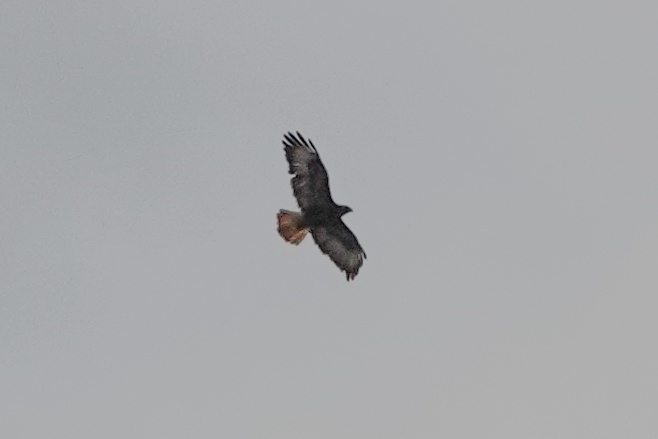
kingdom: Animalia
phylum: Chordata
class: Aves
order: Accipitriformes
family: Accipitridae
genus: Buteo
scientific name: Buteo buteo
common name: Common buzzard
